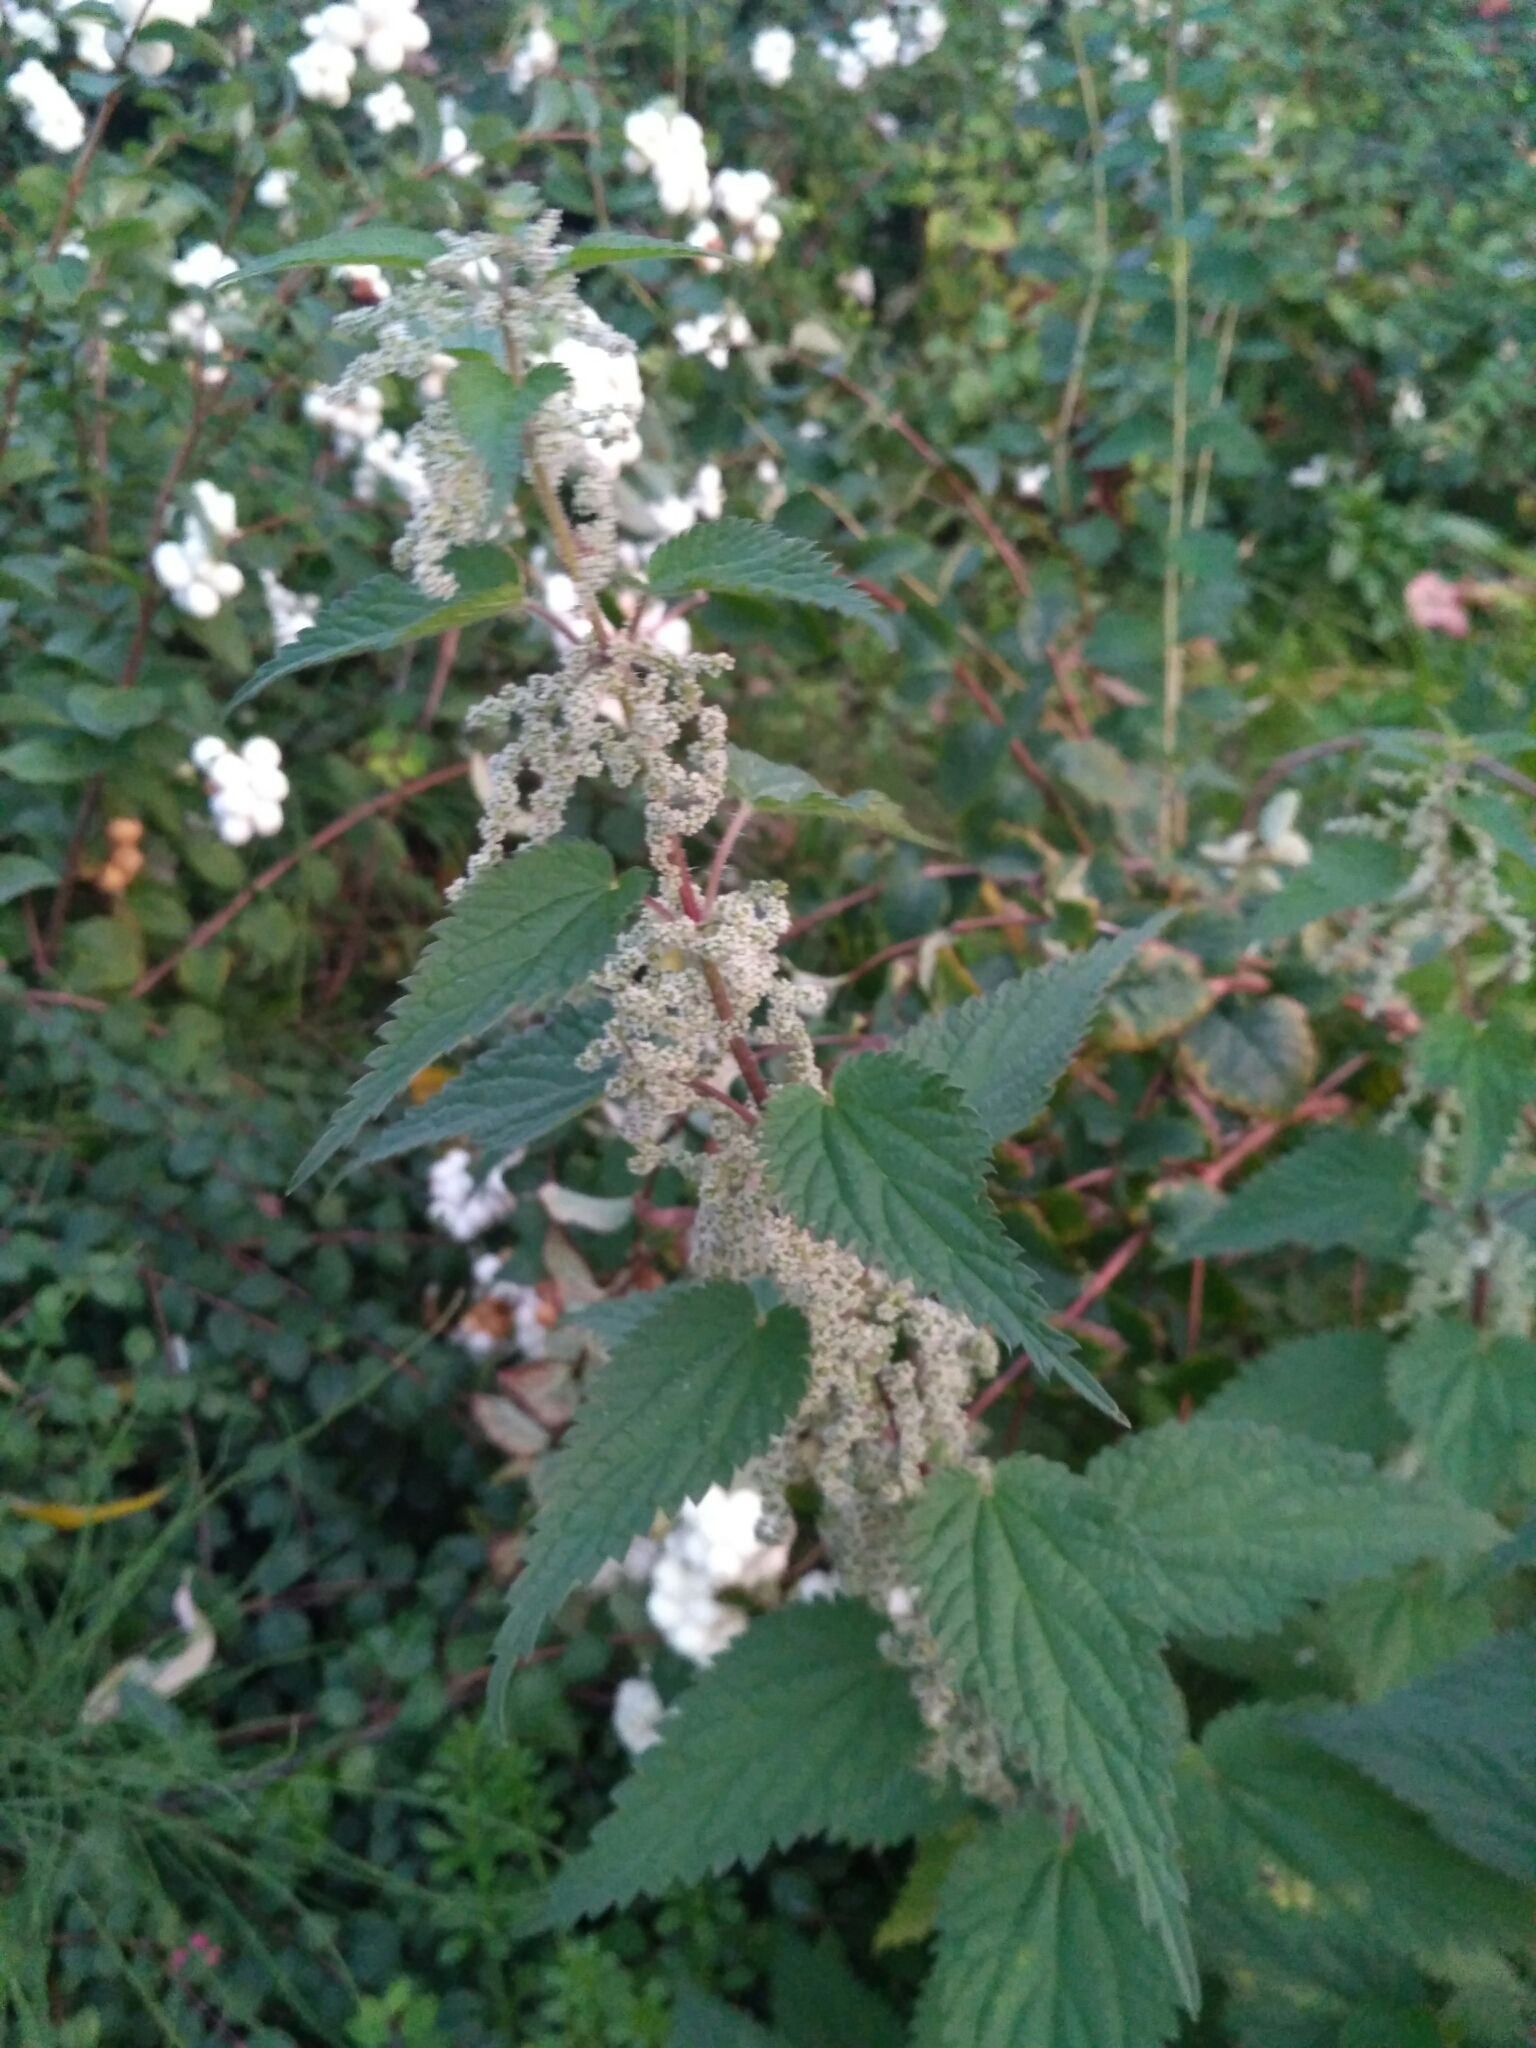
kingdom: Plantae
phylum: Tracheophyta
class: Magnoliopsida
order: Rosales
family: Urticaceae
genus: Urtica
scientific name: Urtica dioica
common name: Common nettle
